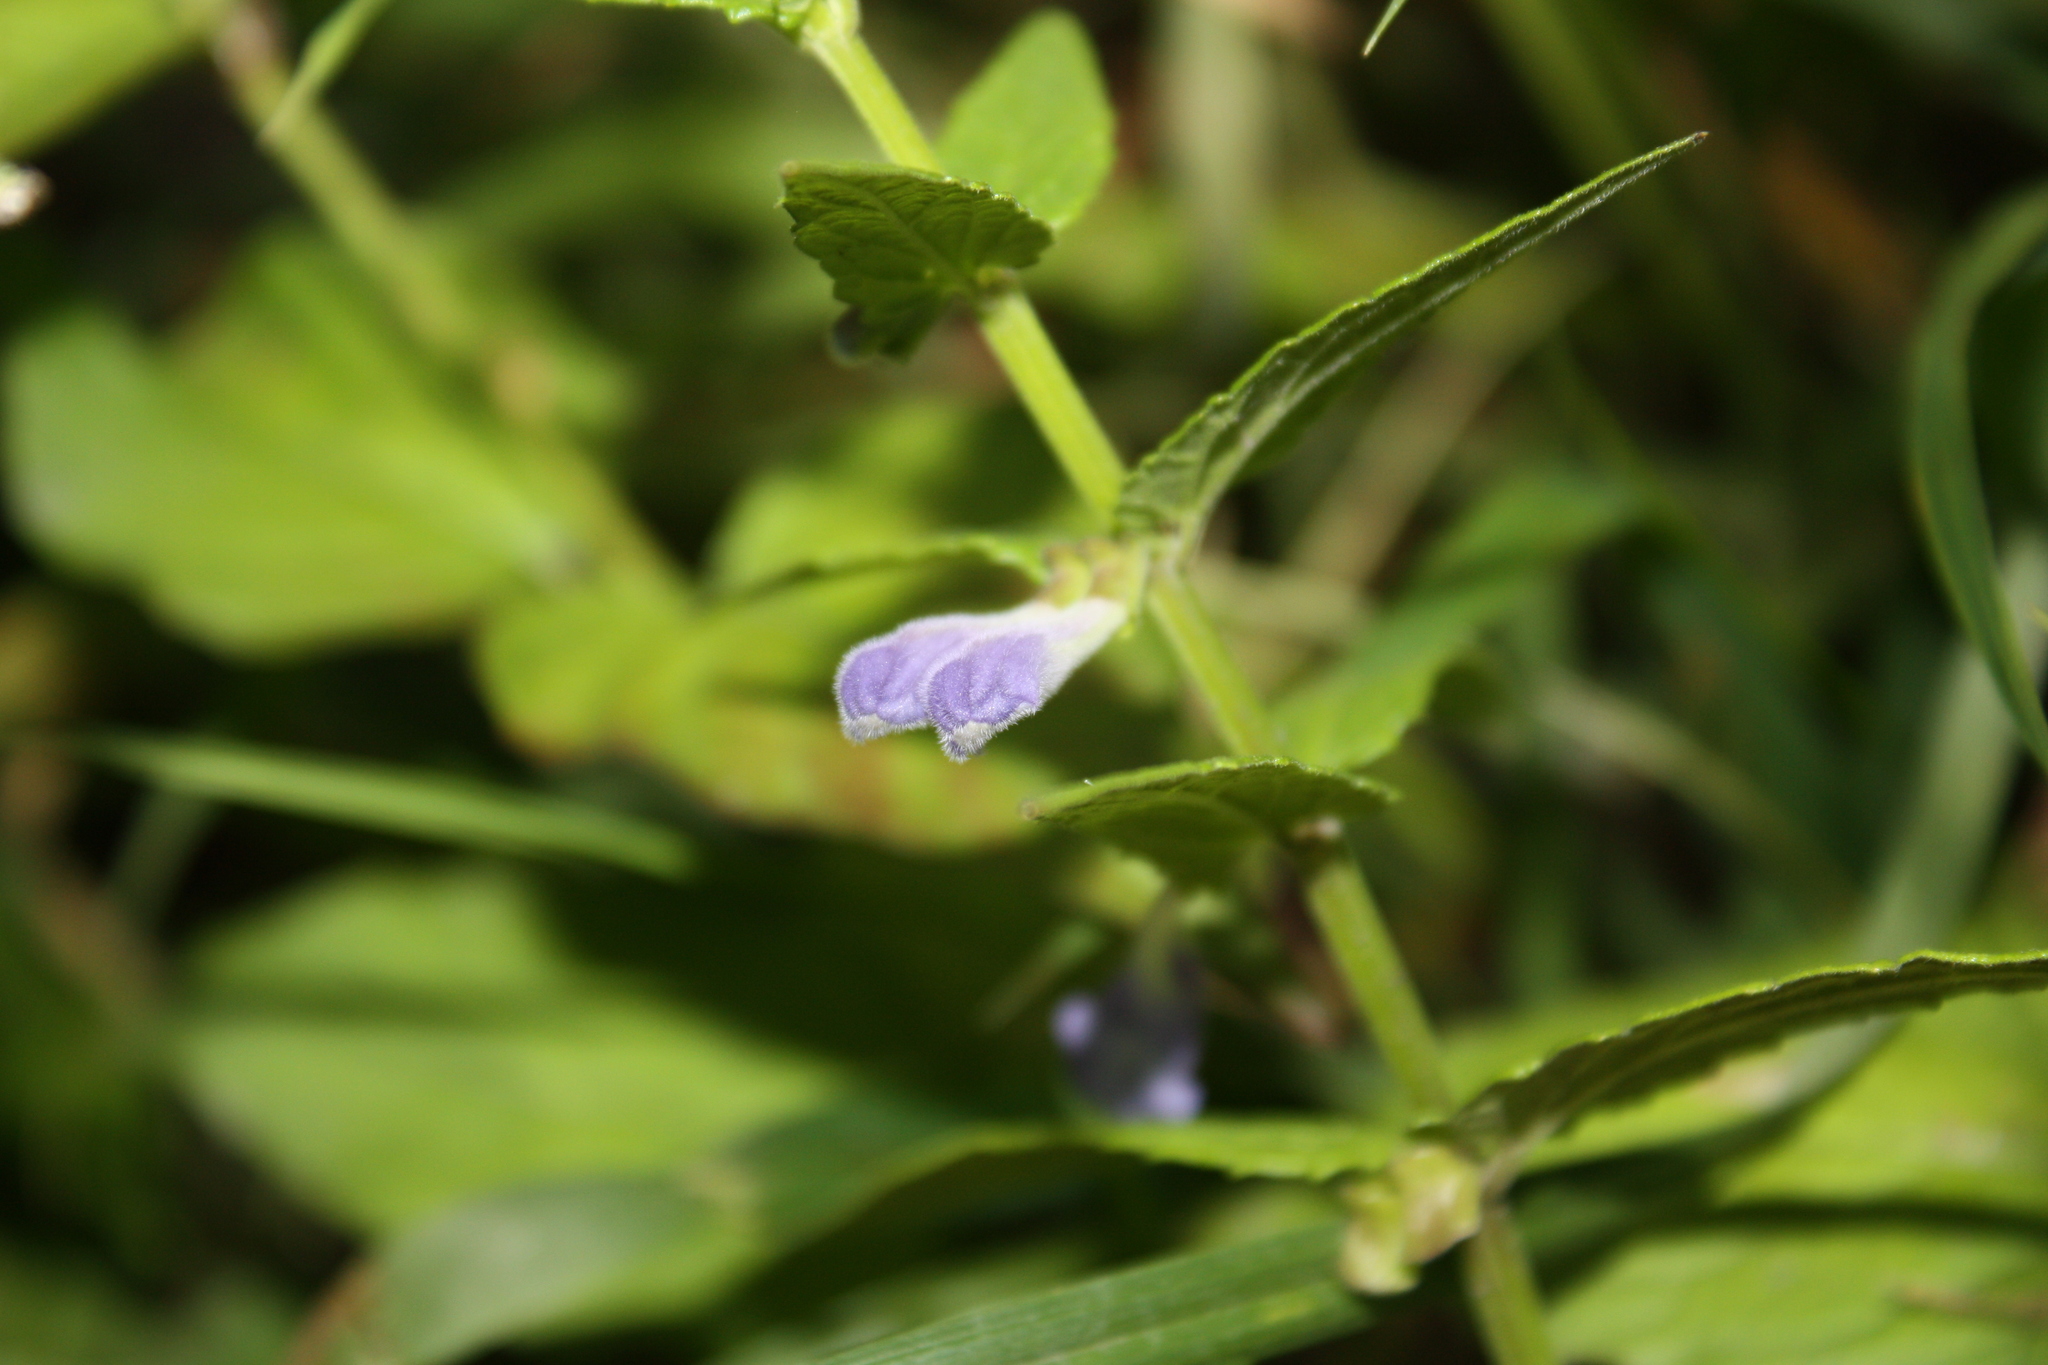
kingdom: Plantae
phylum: Tracheophyta
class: Magnoliopsida
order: Lamiales
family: Lamiaceae
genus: Scutellaria
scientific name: Scutellaria galericulata
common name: Skullcap
